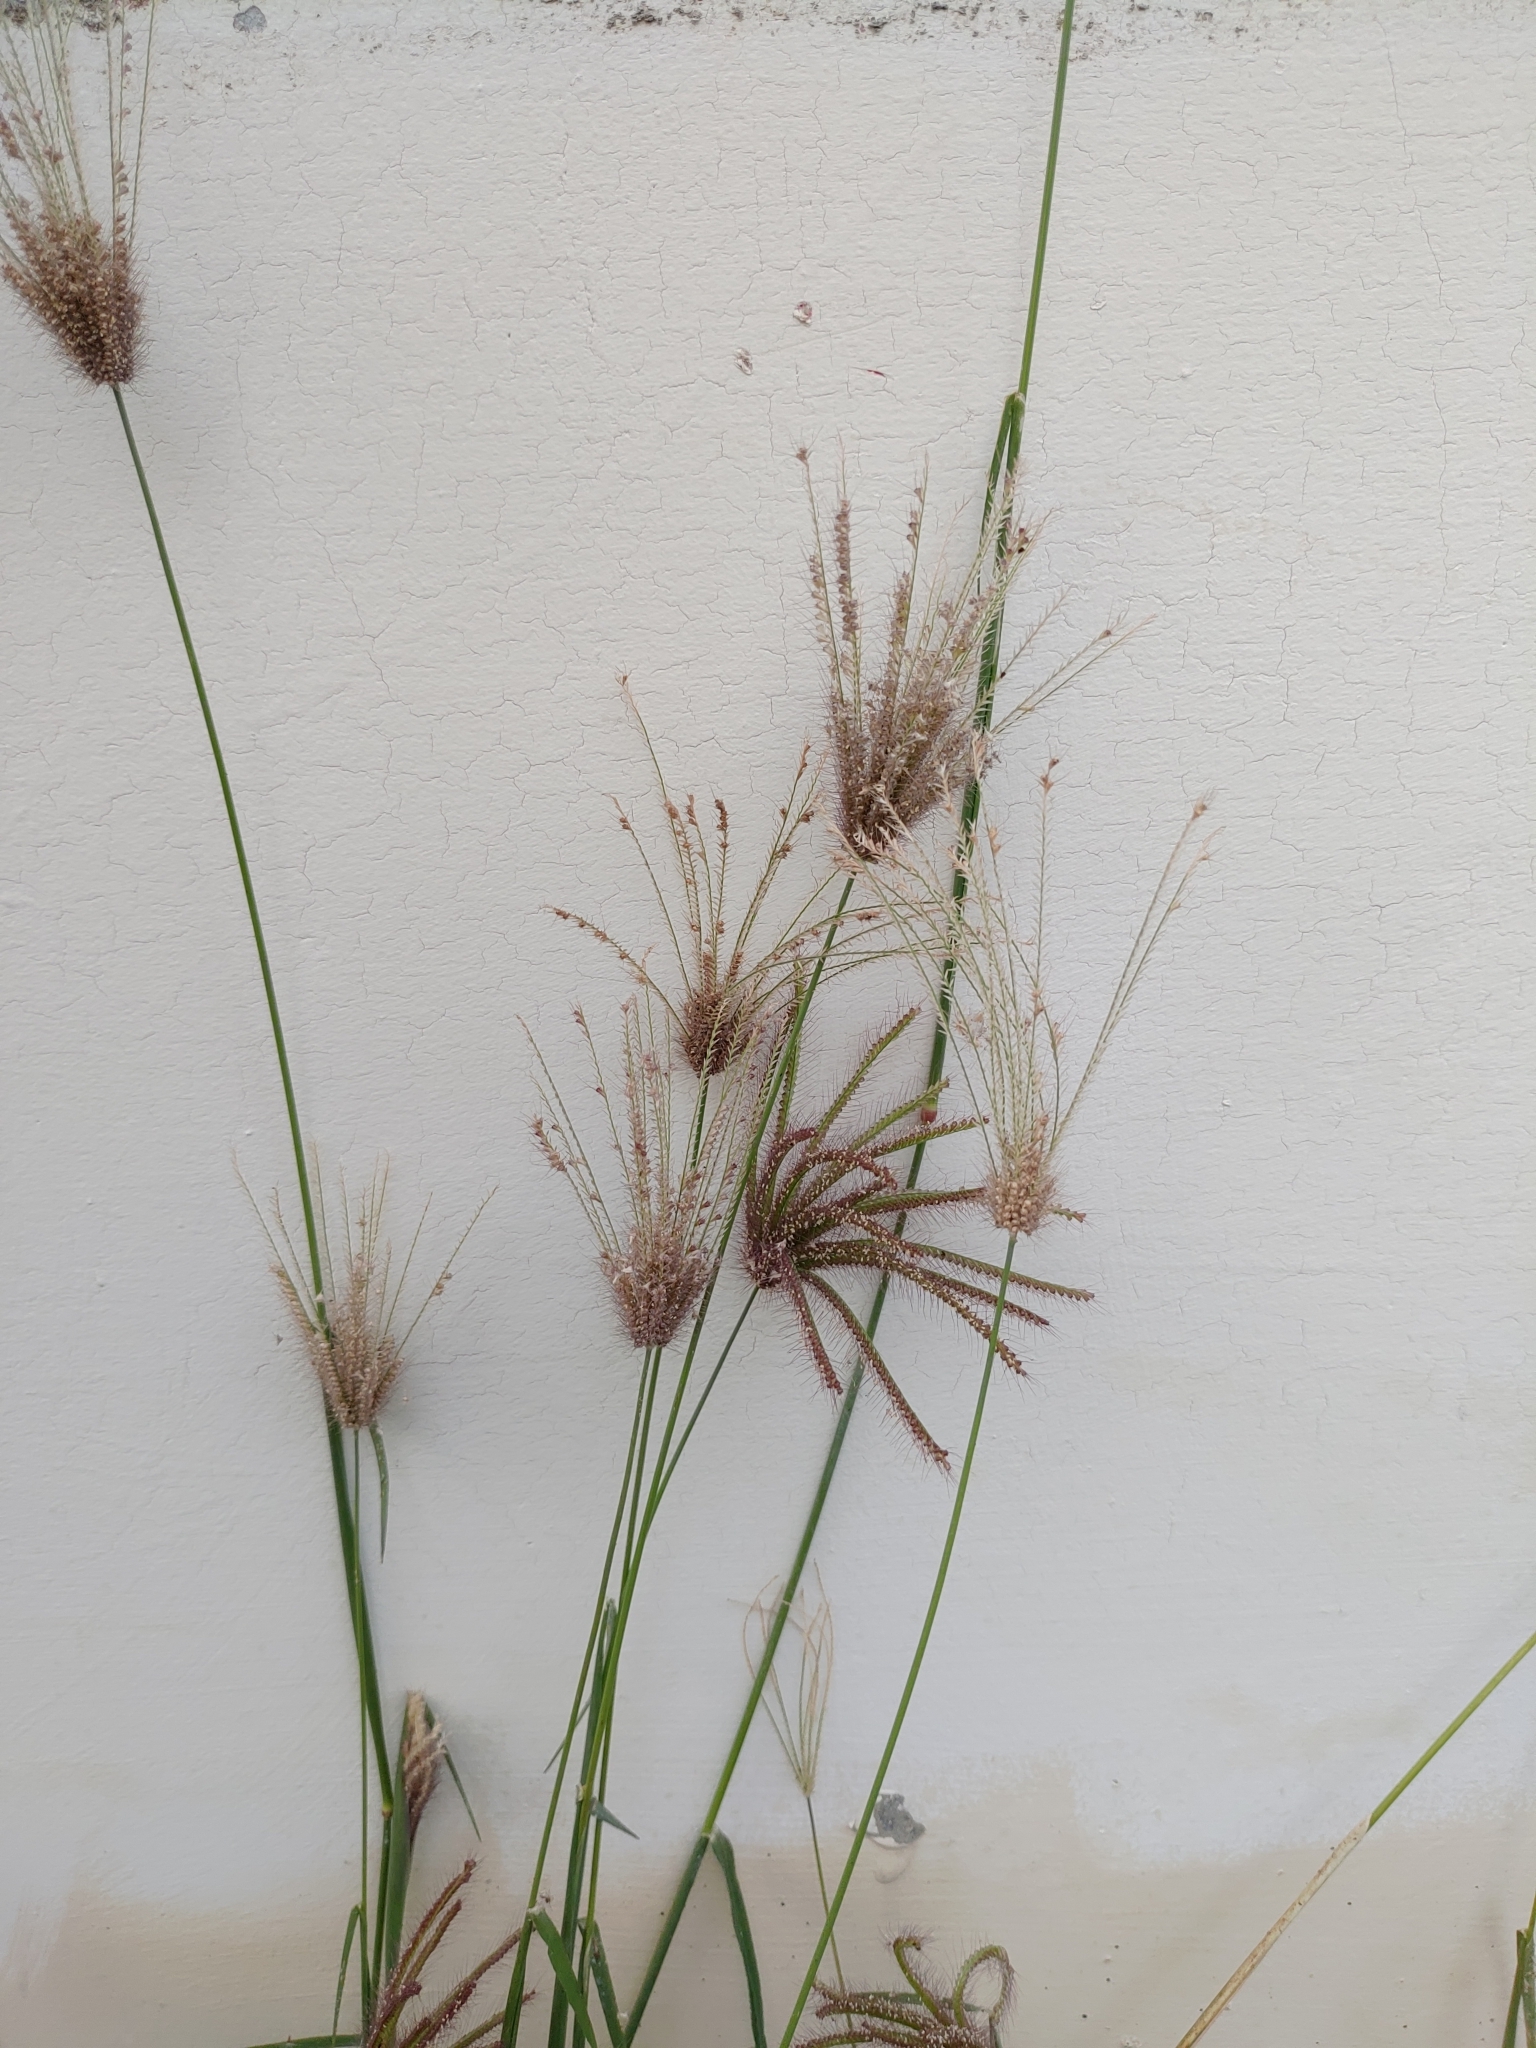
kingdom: Plantae
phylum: Tracheophyta
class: Liliopsida
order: Poales
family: Poaceae
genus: Chloris
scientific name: Chloris barbata
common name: Swollen fingergrass
